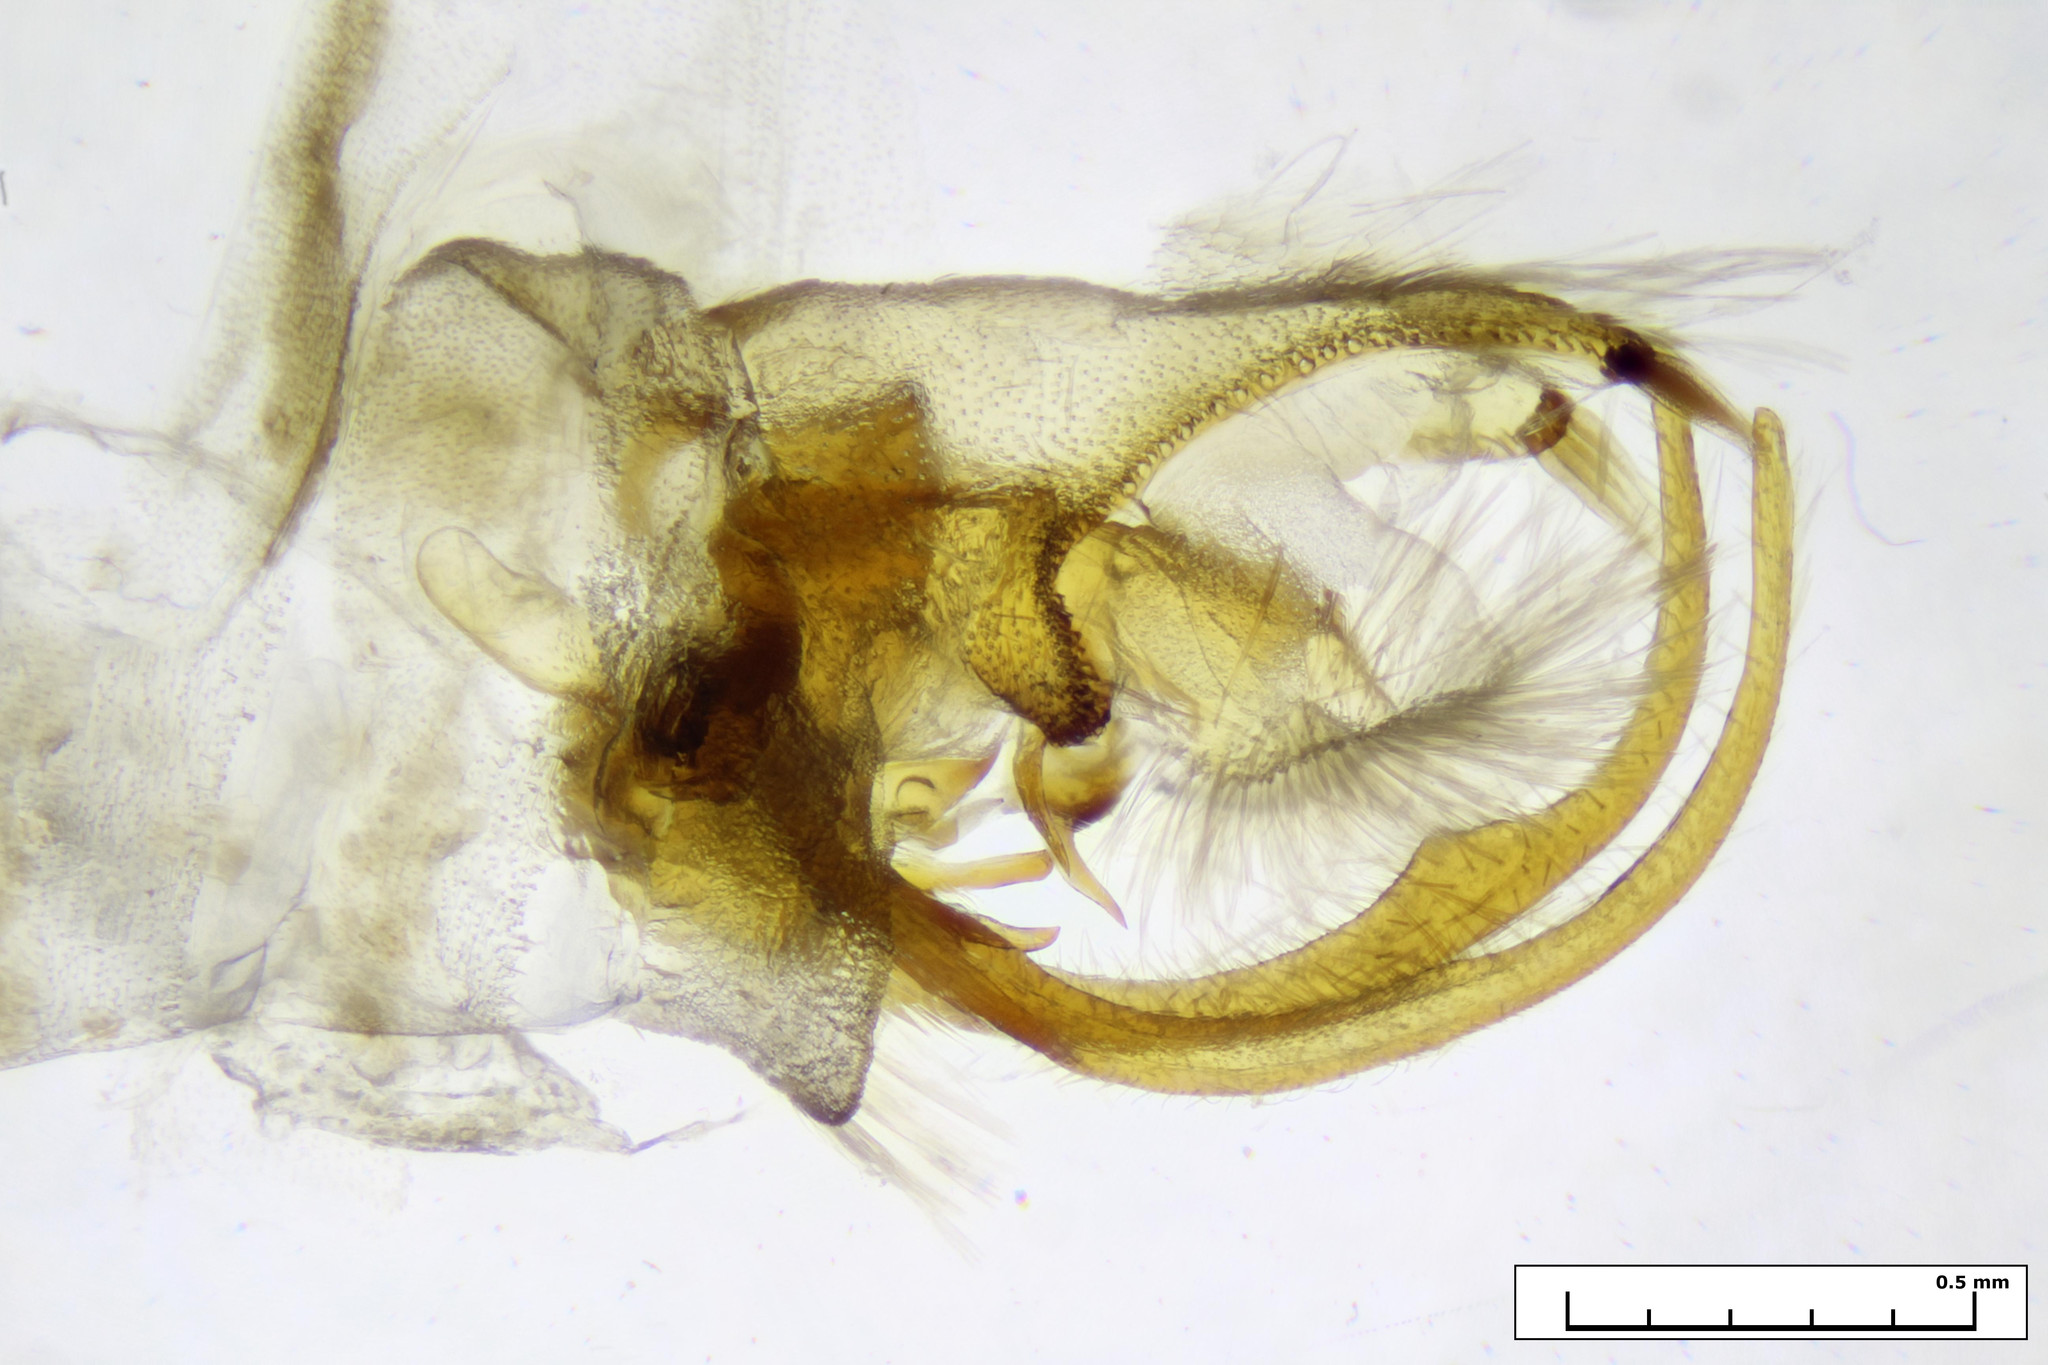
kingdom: Animalia
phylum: Arthropoda
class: Insecta
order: Lepidoptera
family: Pterophoridae
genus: Stangeia
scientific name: Stangeia xerodes
